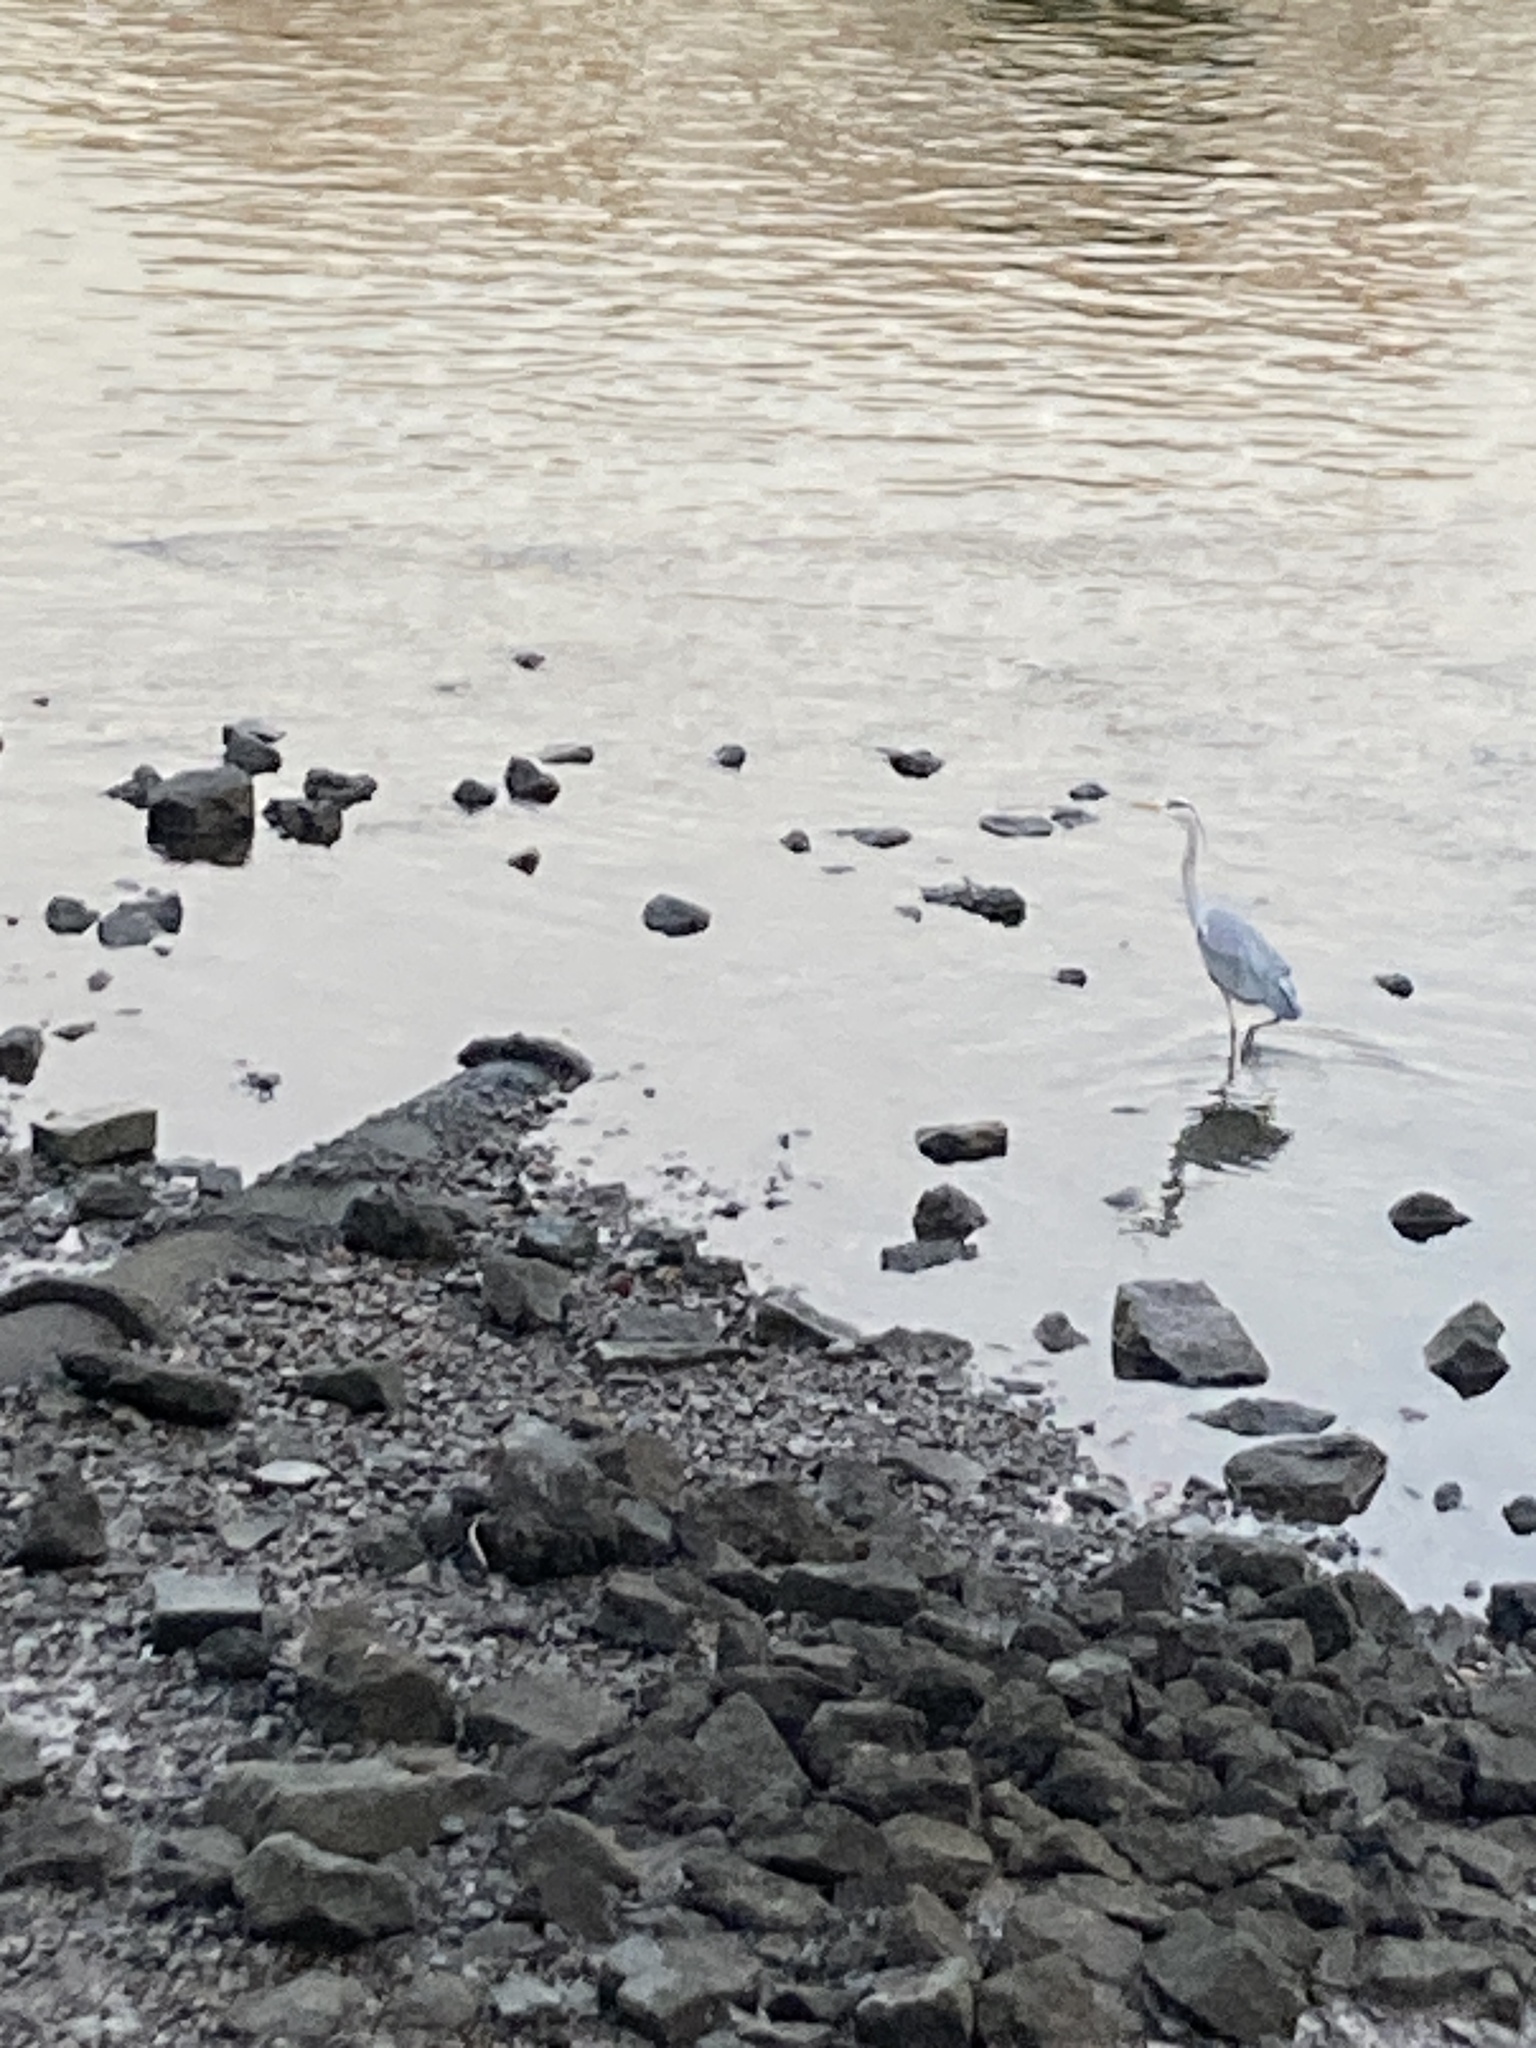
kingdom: Animalia
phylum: Chordata
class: Aves
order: Pelecaniformes
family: Ardeidae
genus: Ardea
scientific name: Ardea cinerea
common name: Grey heron
